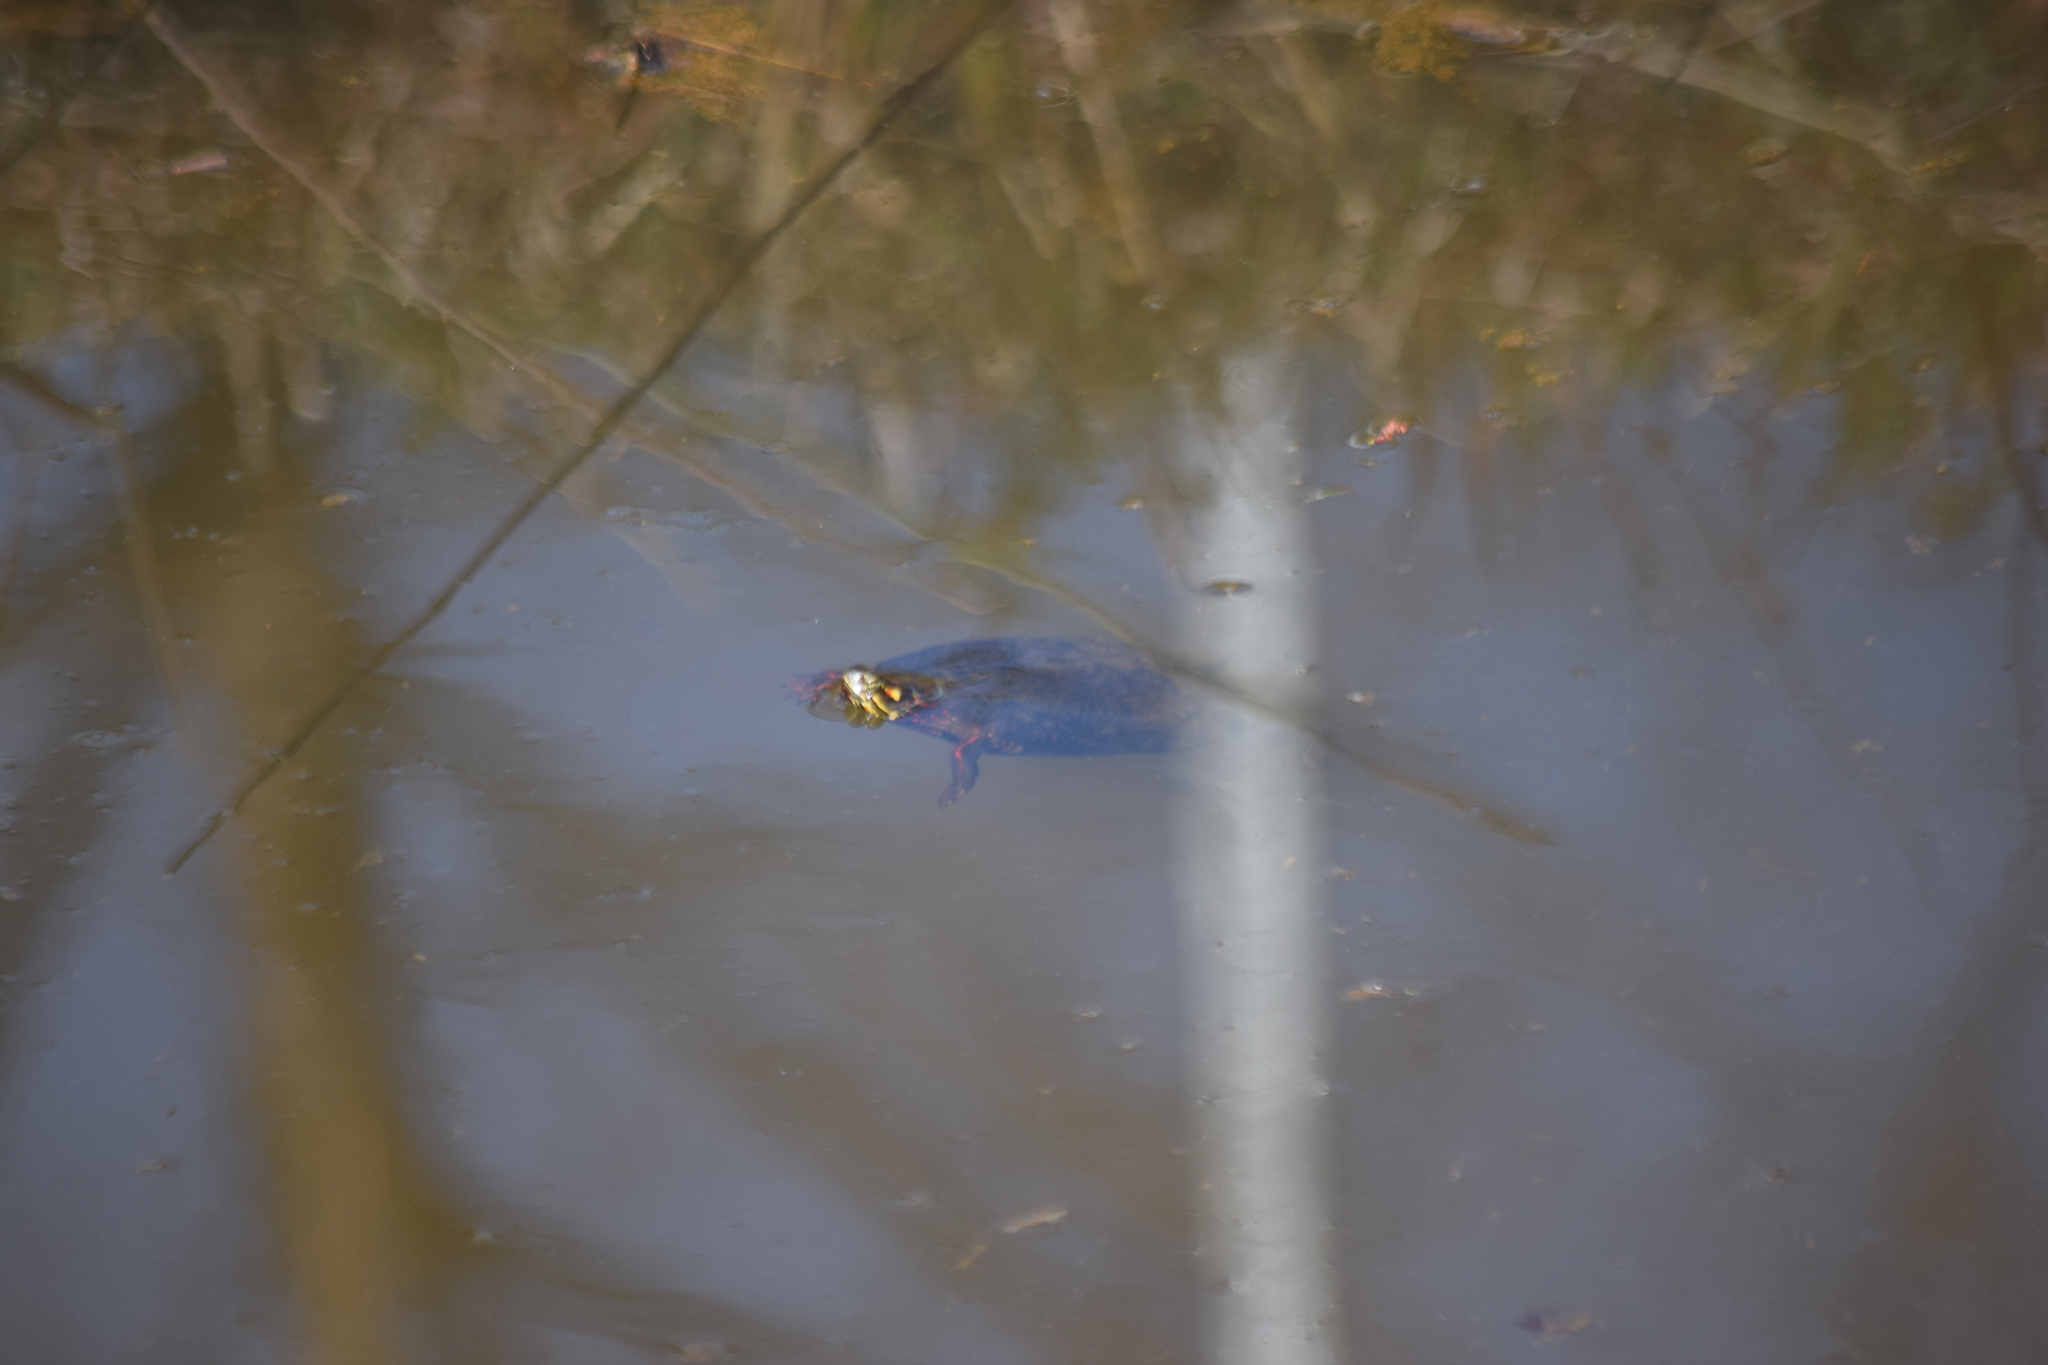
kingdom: Animalia
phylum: Chordata
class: Testudines
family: Emydidae
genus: Chrysemys
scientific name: Chrysemys picta
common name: Painted turtle
